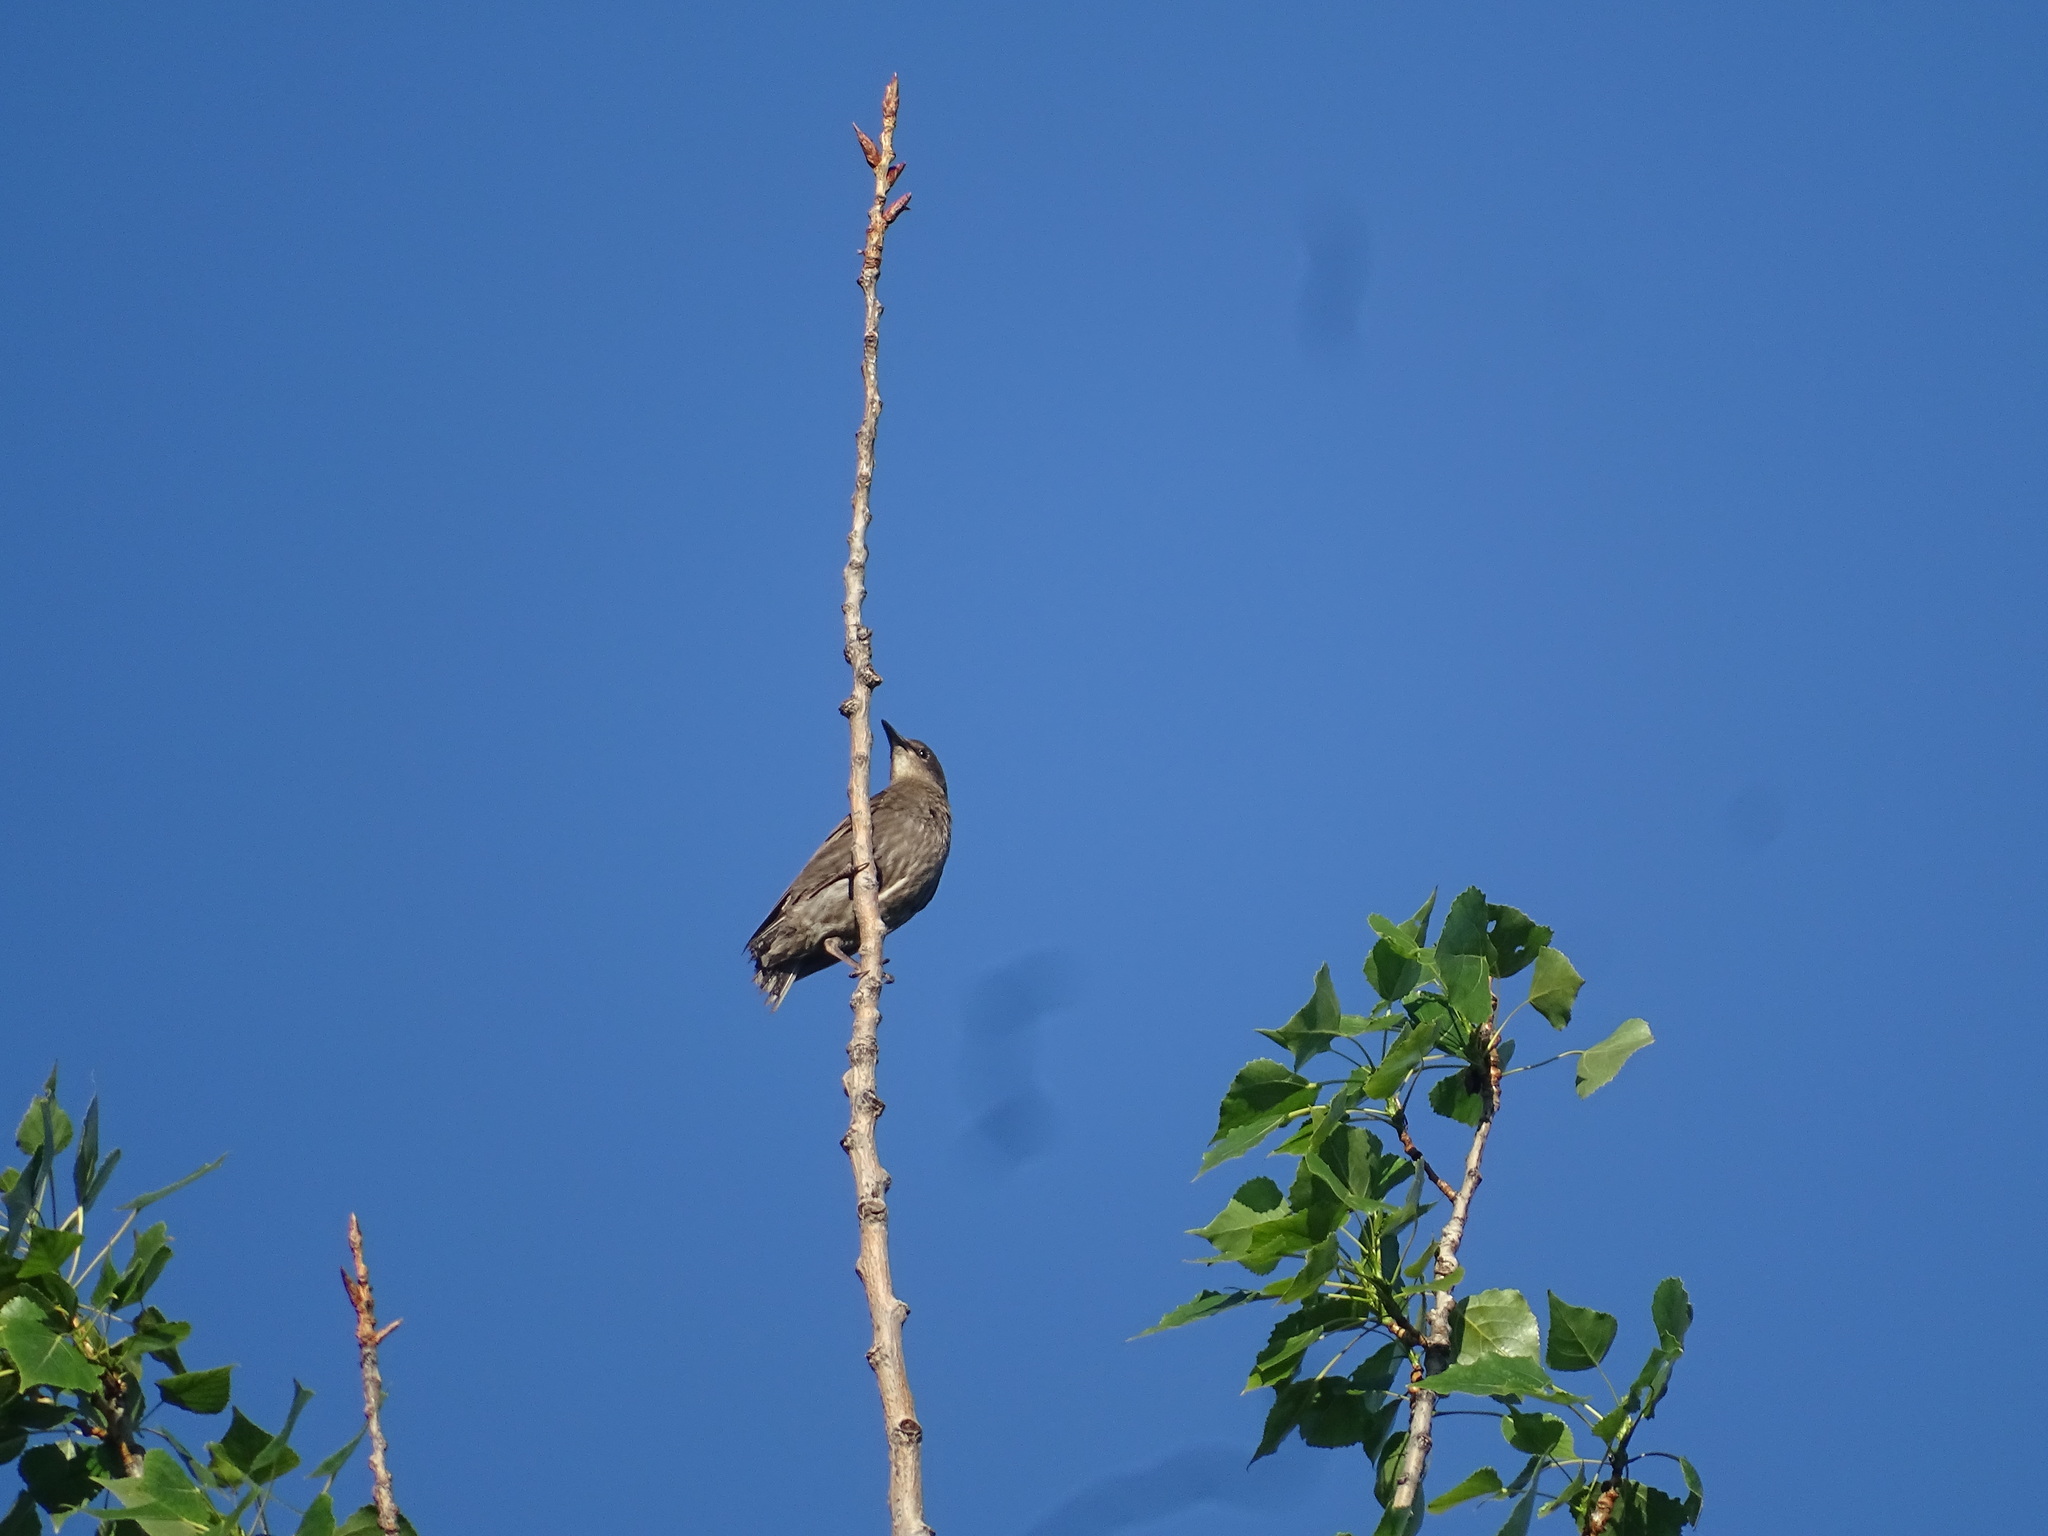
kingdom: Animalia
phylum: Chordata
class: Aves
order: Passeriformes
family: Sturnidae
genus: Sturnus
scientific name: Sturnus vulgaris
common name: Common starling
